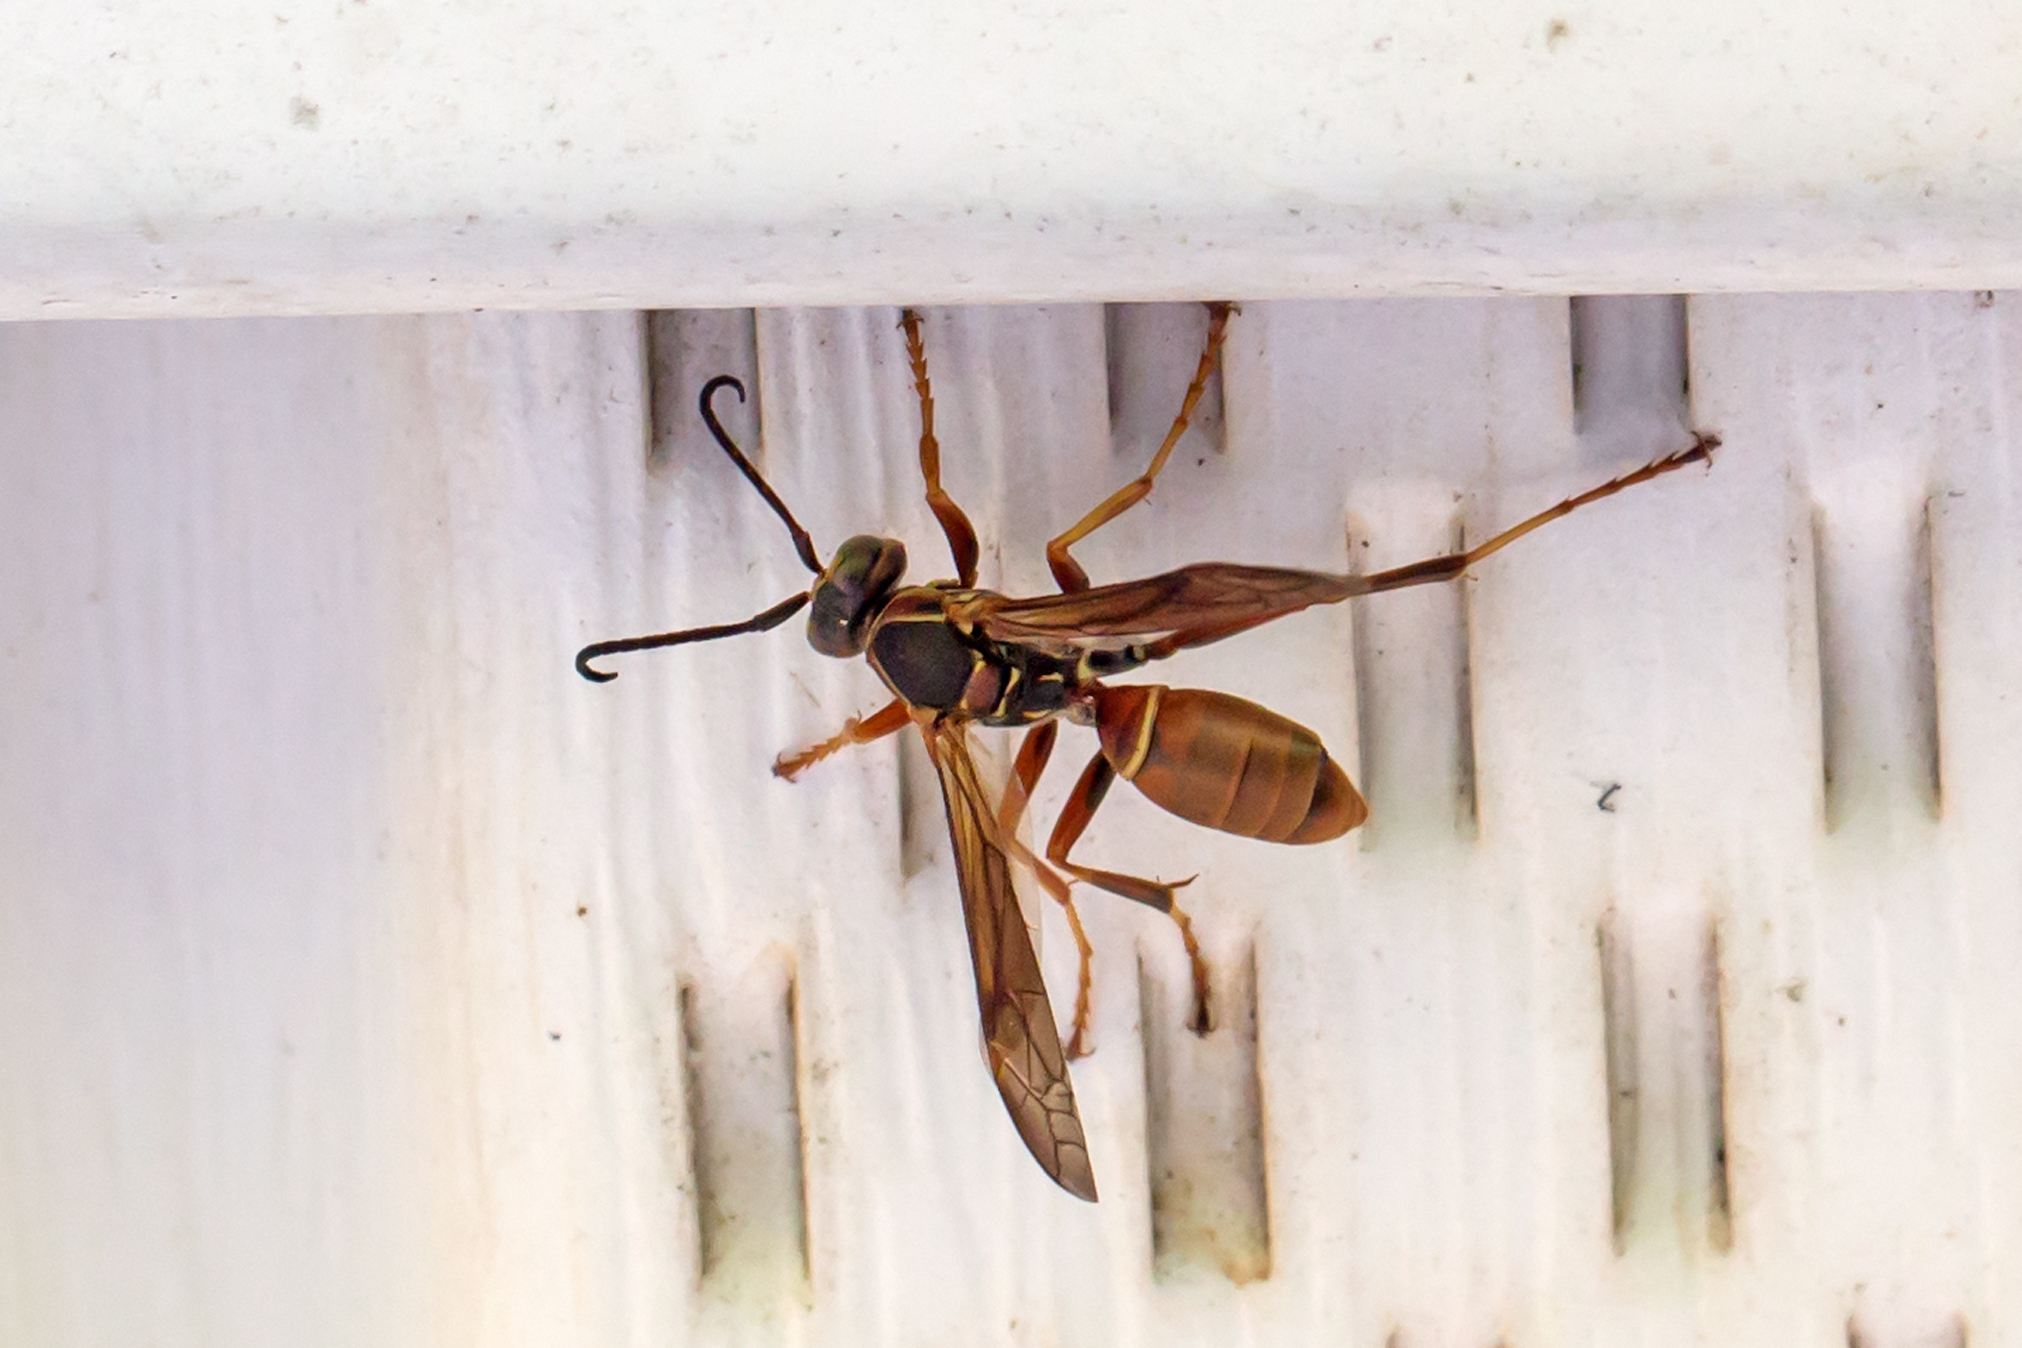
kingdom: Animalia
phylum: Arthropoda
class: Insecta
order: Hymenoptera
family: Eumenidae
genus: Polistes
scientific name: Polistes fuscatus
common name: Dark paper wasp
